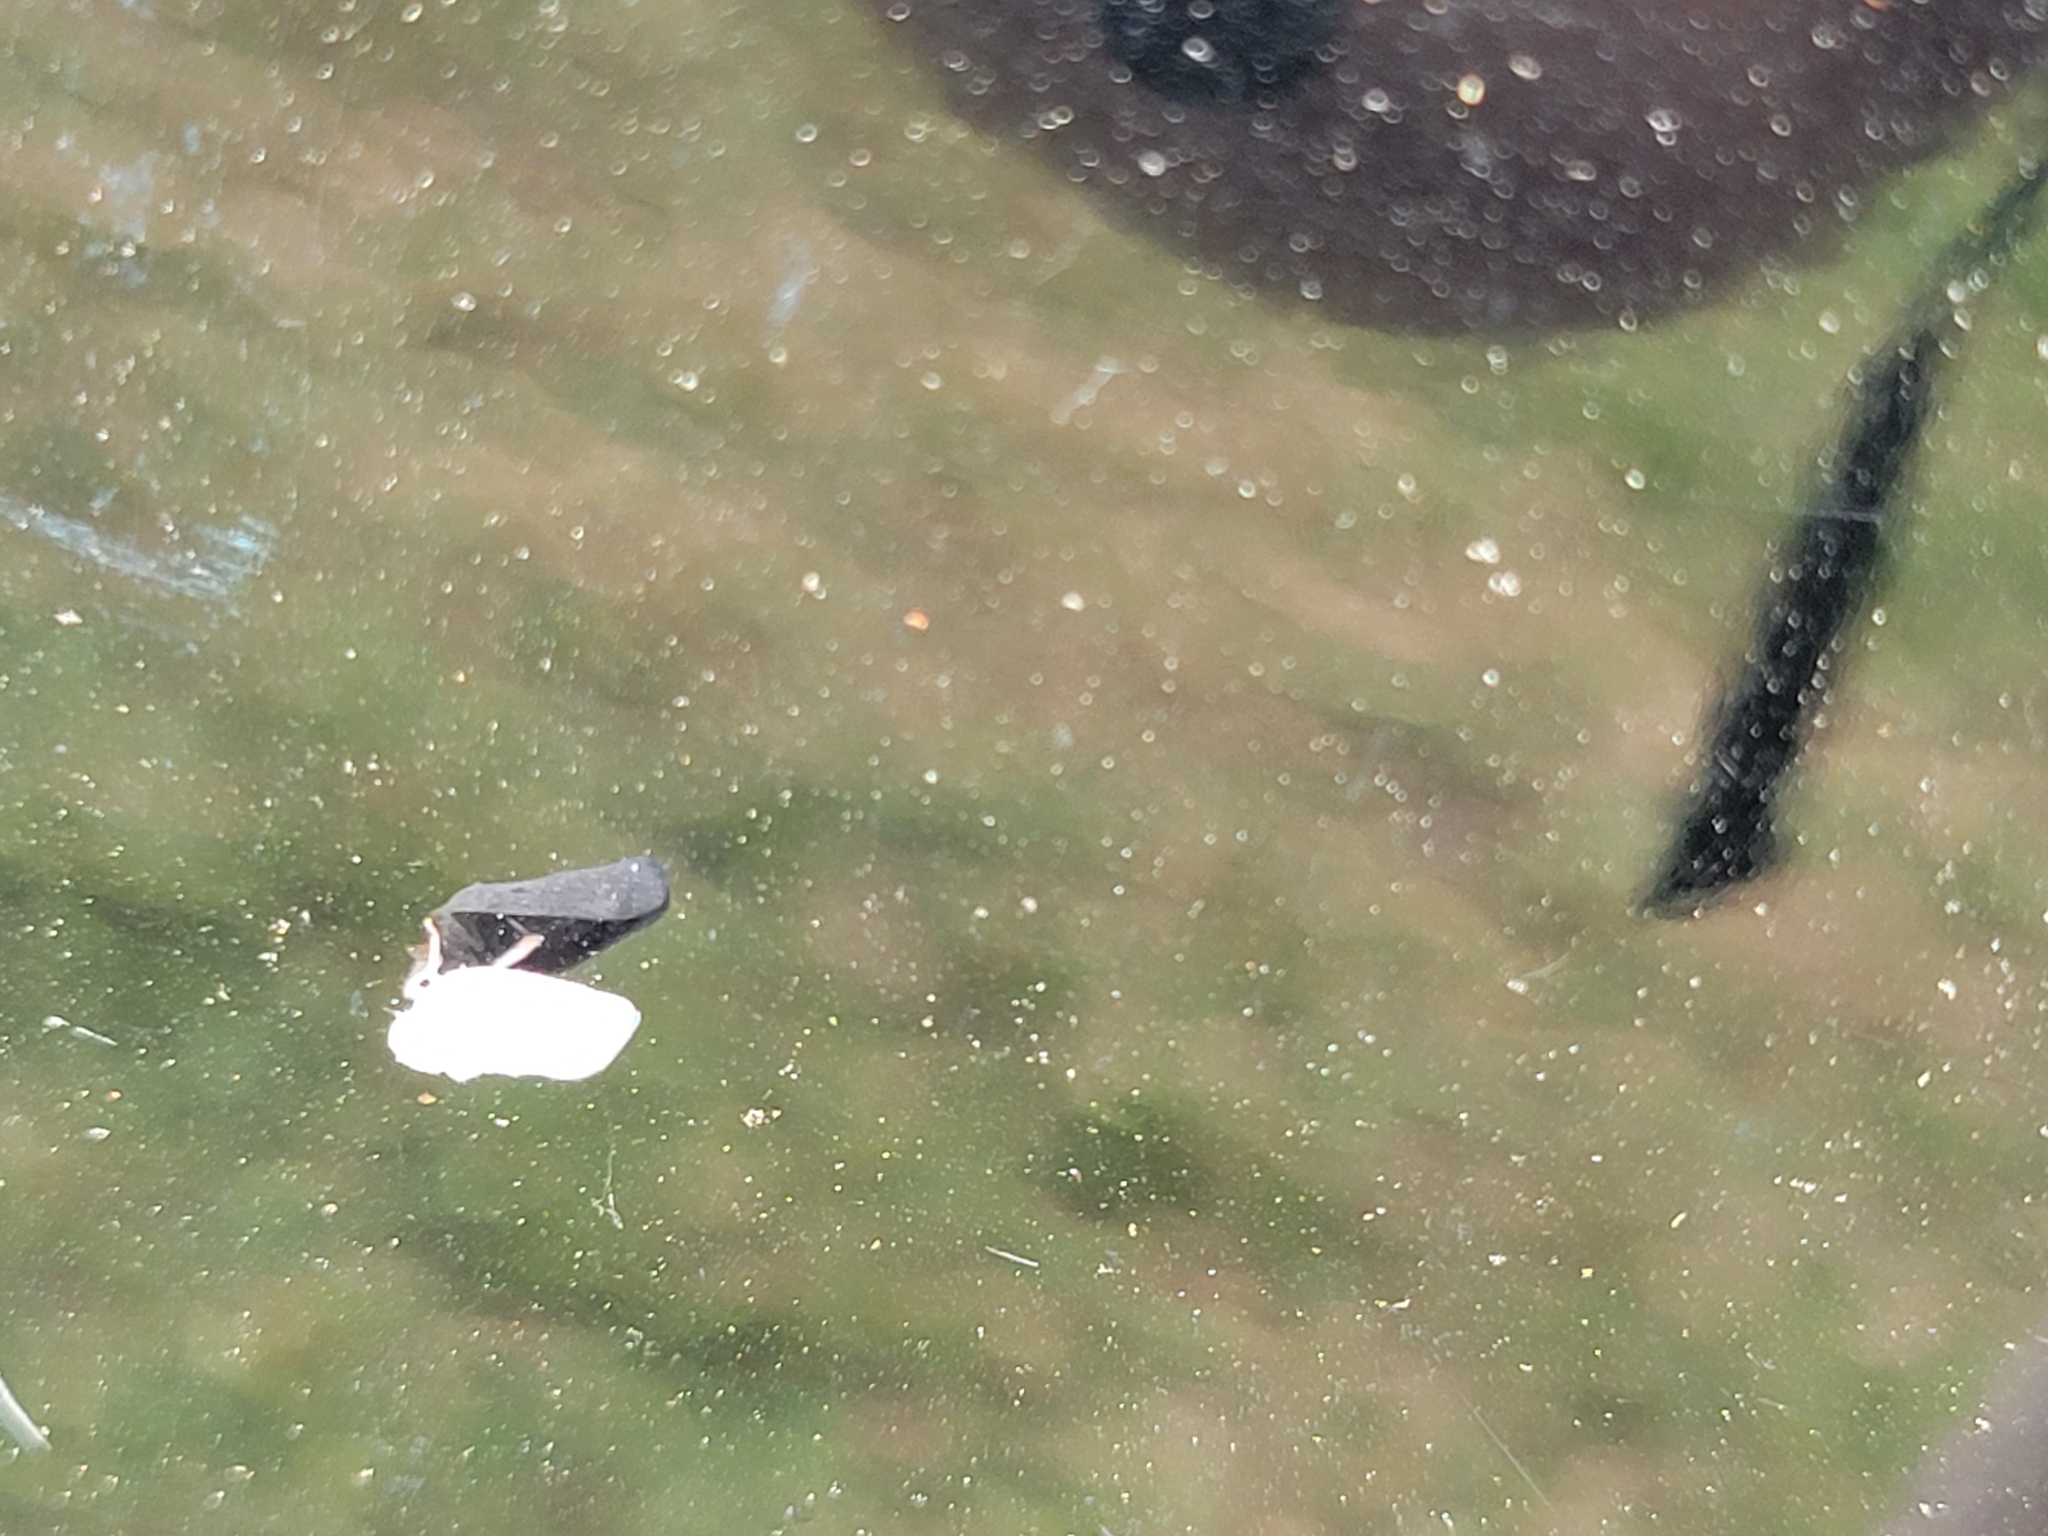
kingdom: Animalia
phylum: Arthropoda
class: Insecta
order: Hemiptera
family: Flatidae
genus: Metcalfa
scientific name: Metcalfa pruinosa
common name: Citrus flatid planthopper
